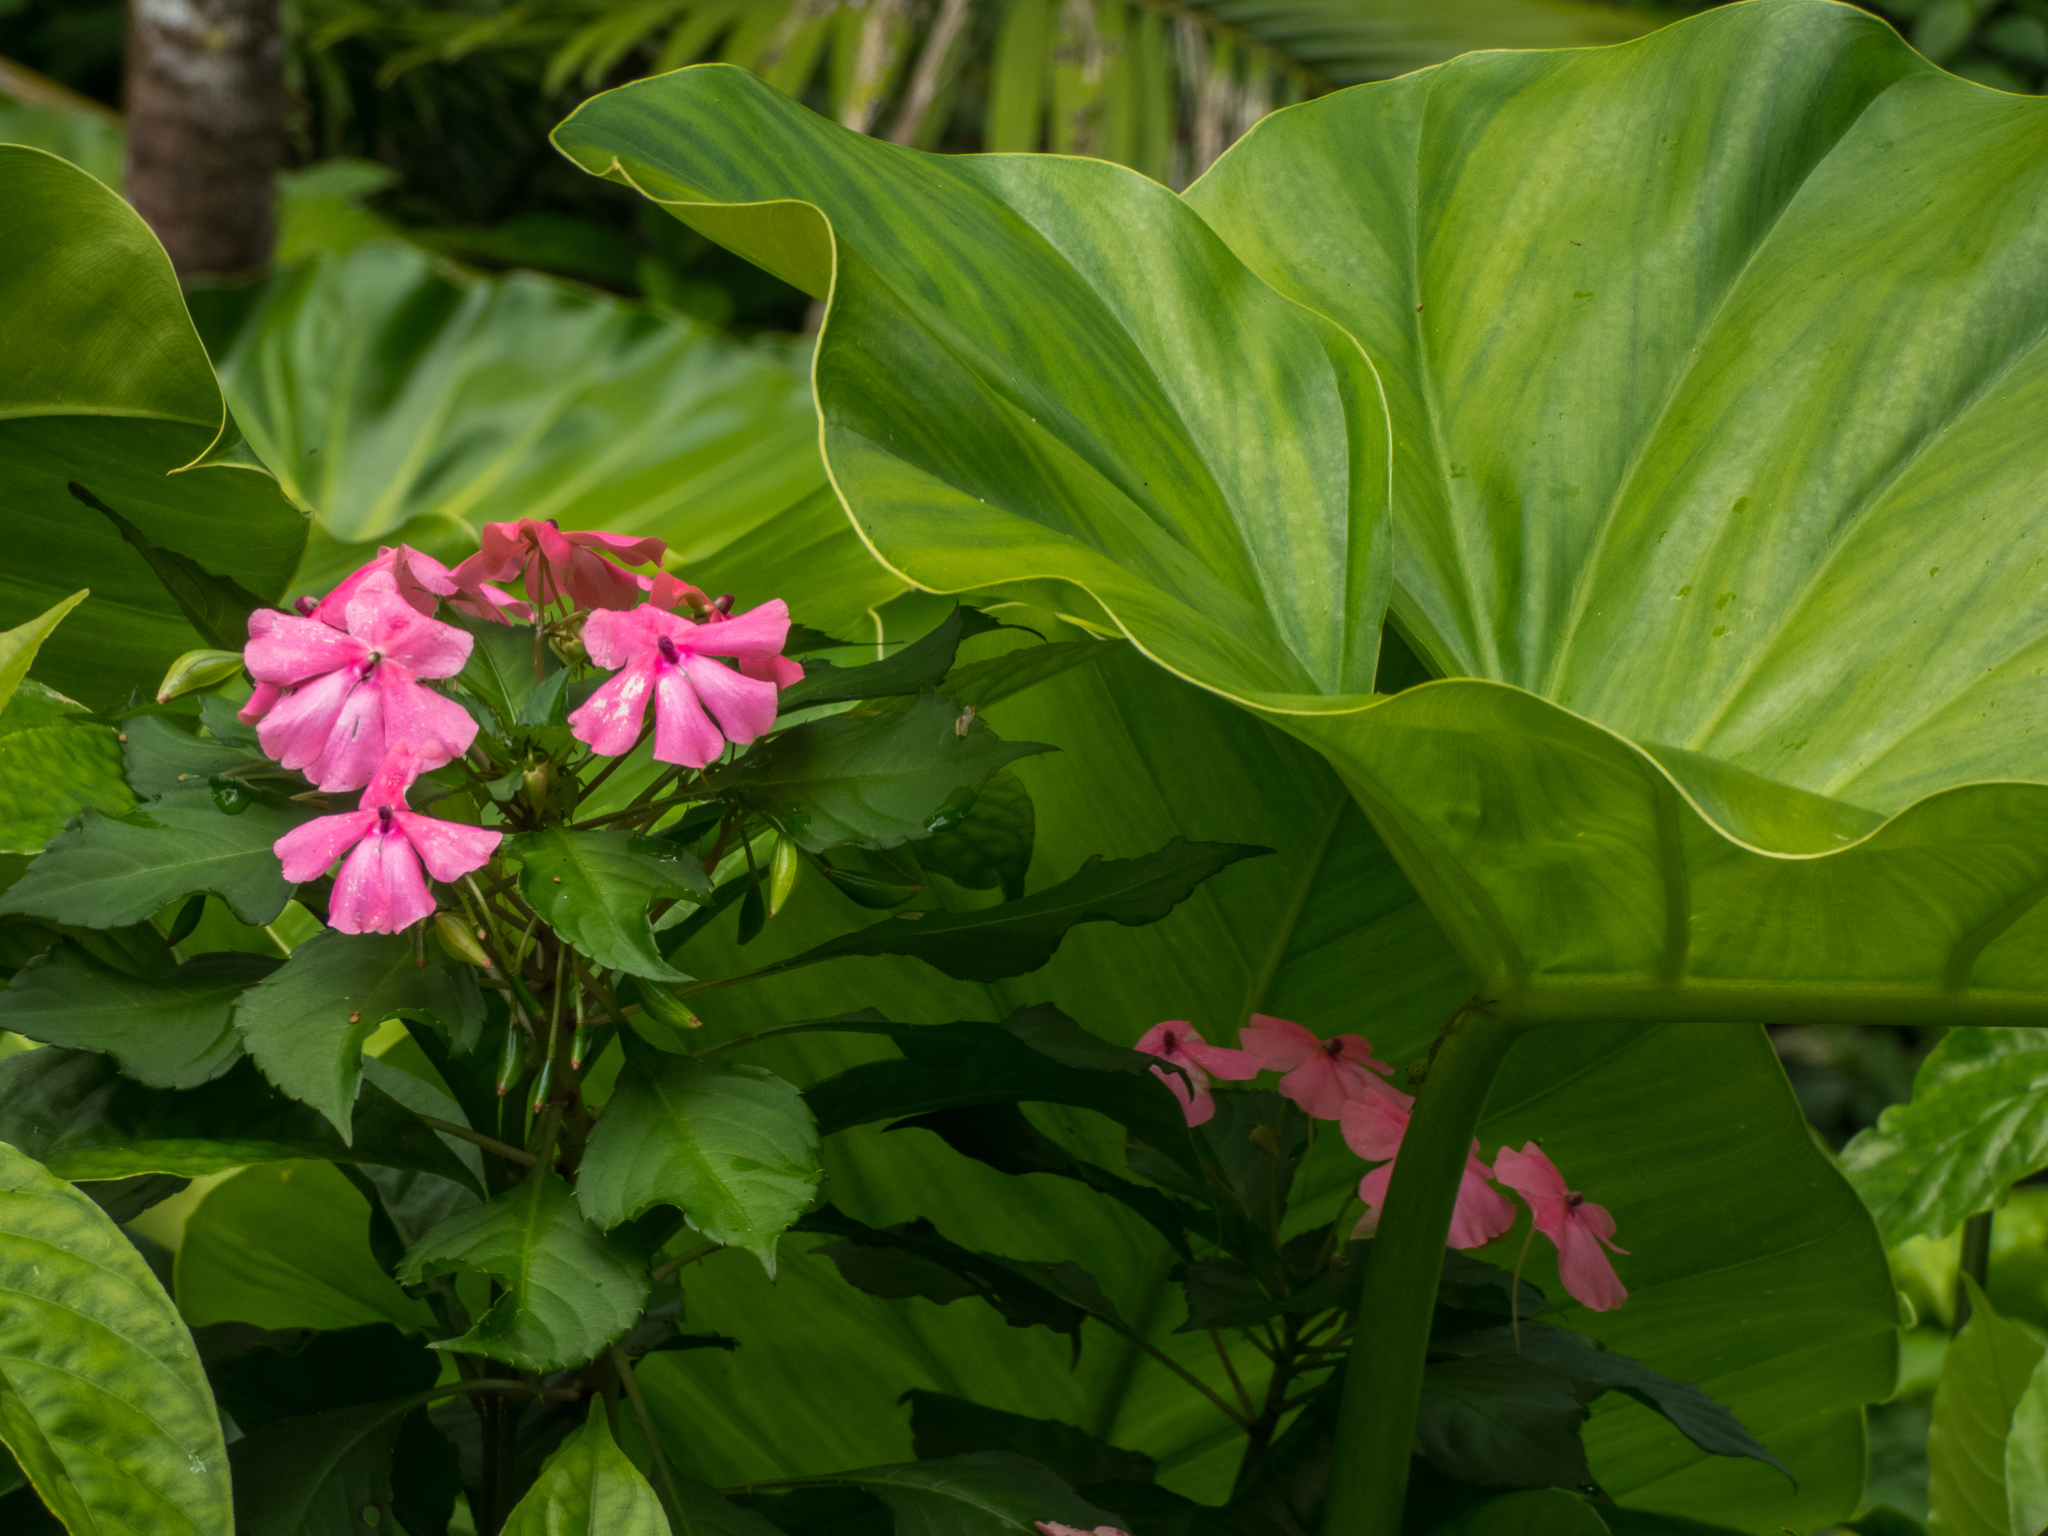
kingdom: Plantae
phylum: Tracheophyta
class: Magnoliopsida
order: Ericales
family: Balsaminaceae
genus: Impatiens
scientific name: Impatiens walleriana
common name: Buzzy lizzy
